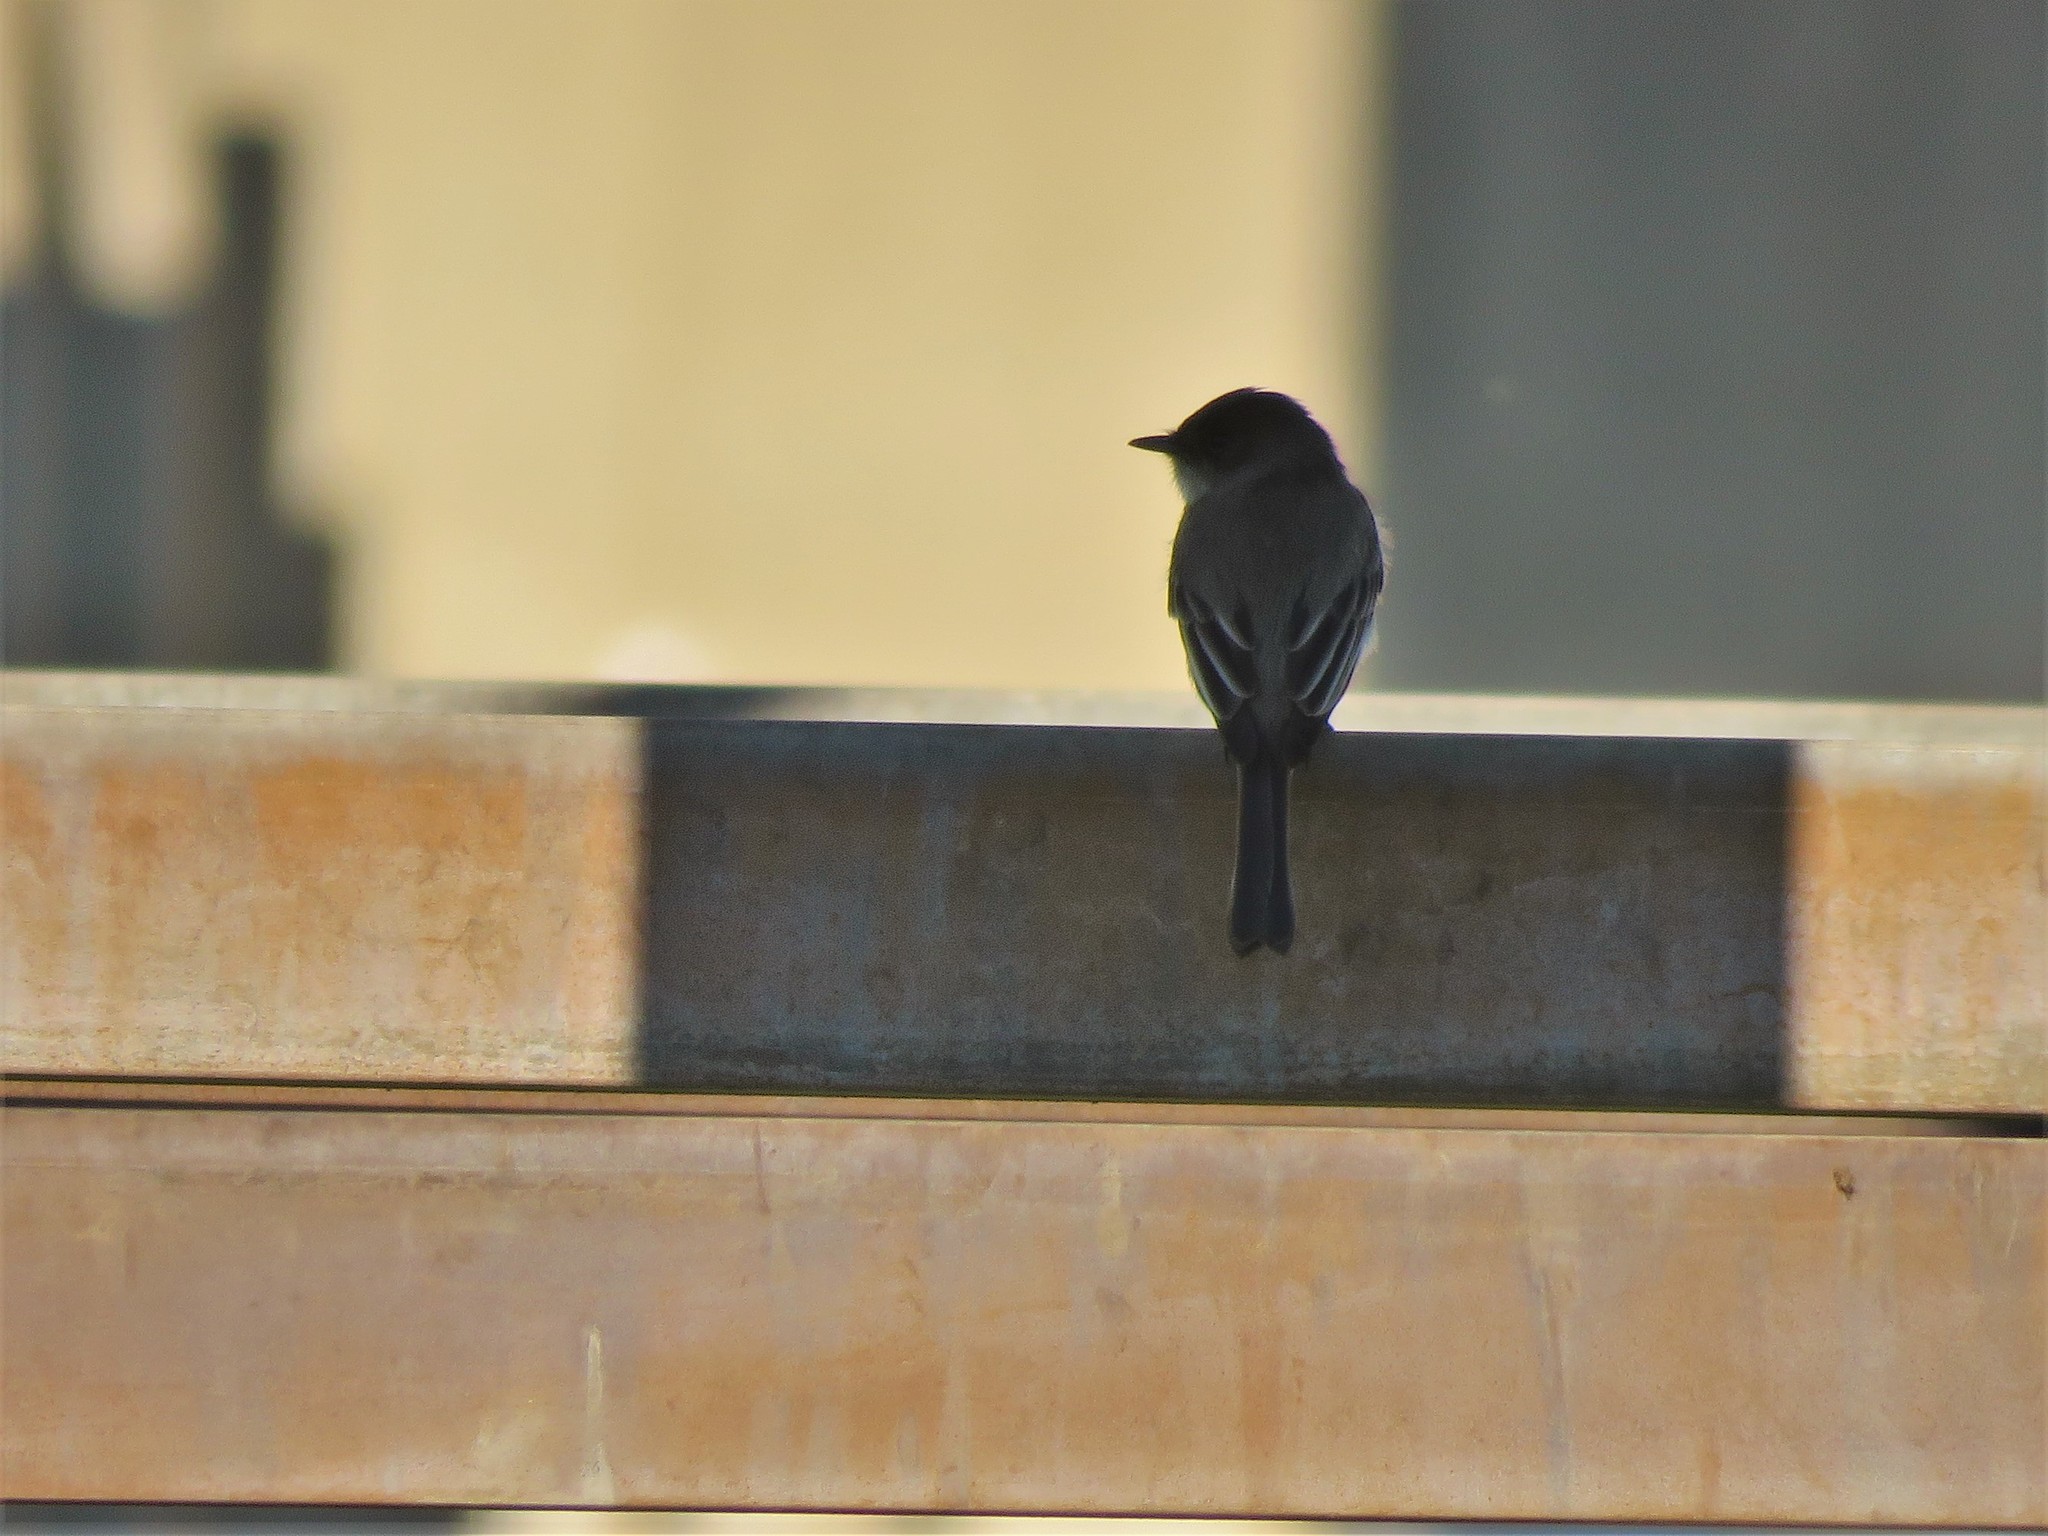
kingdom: Animalia
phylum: Chordata
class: Aves
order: Passeriformes
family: Tyrannidae
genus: Sayornis
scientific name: Sayornis phoebe
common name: Eastern phoebe
